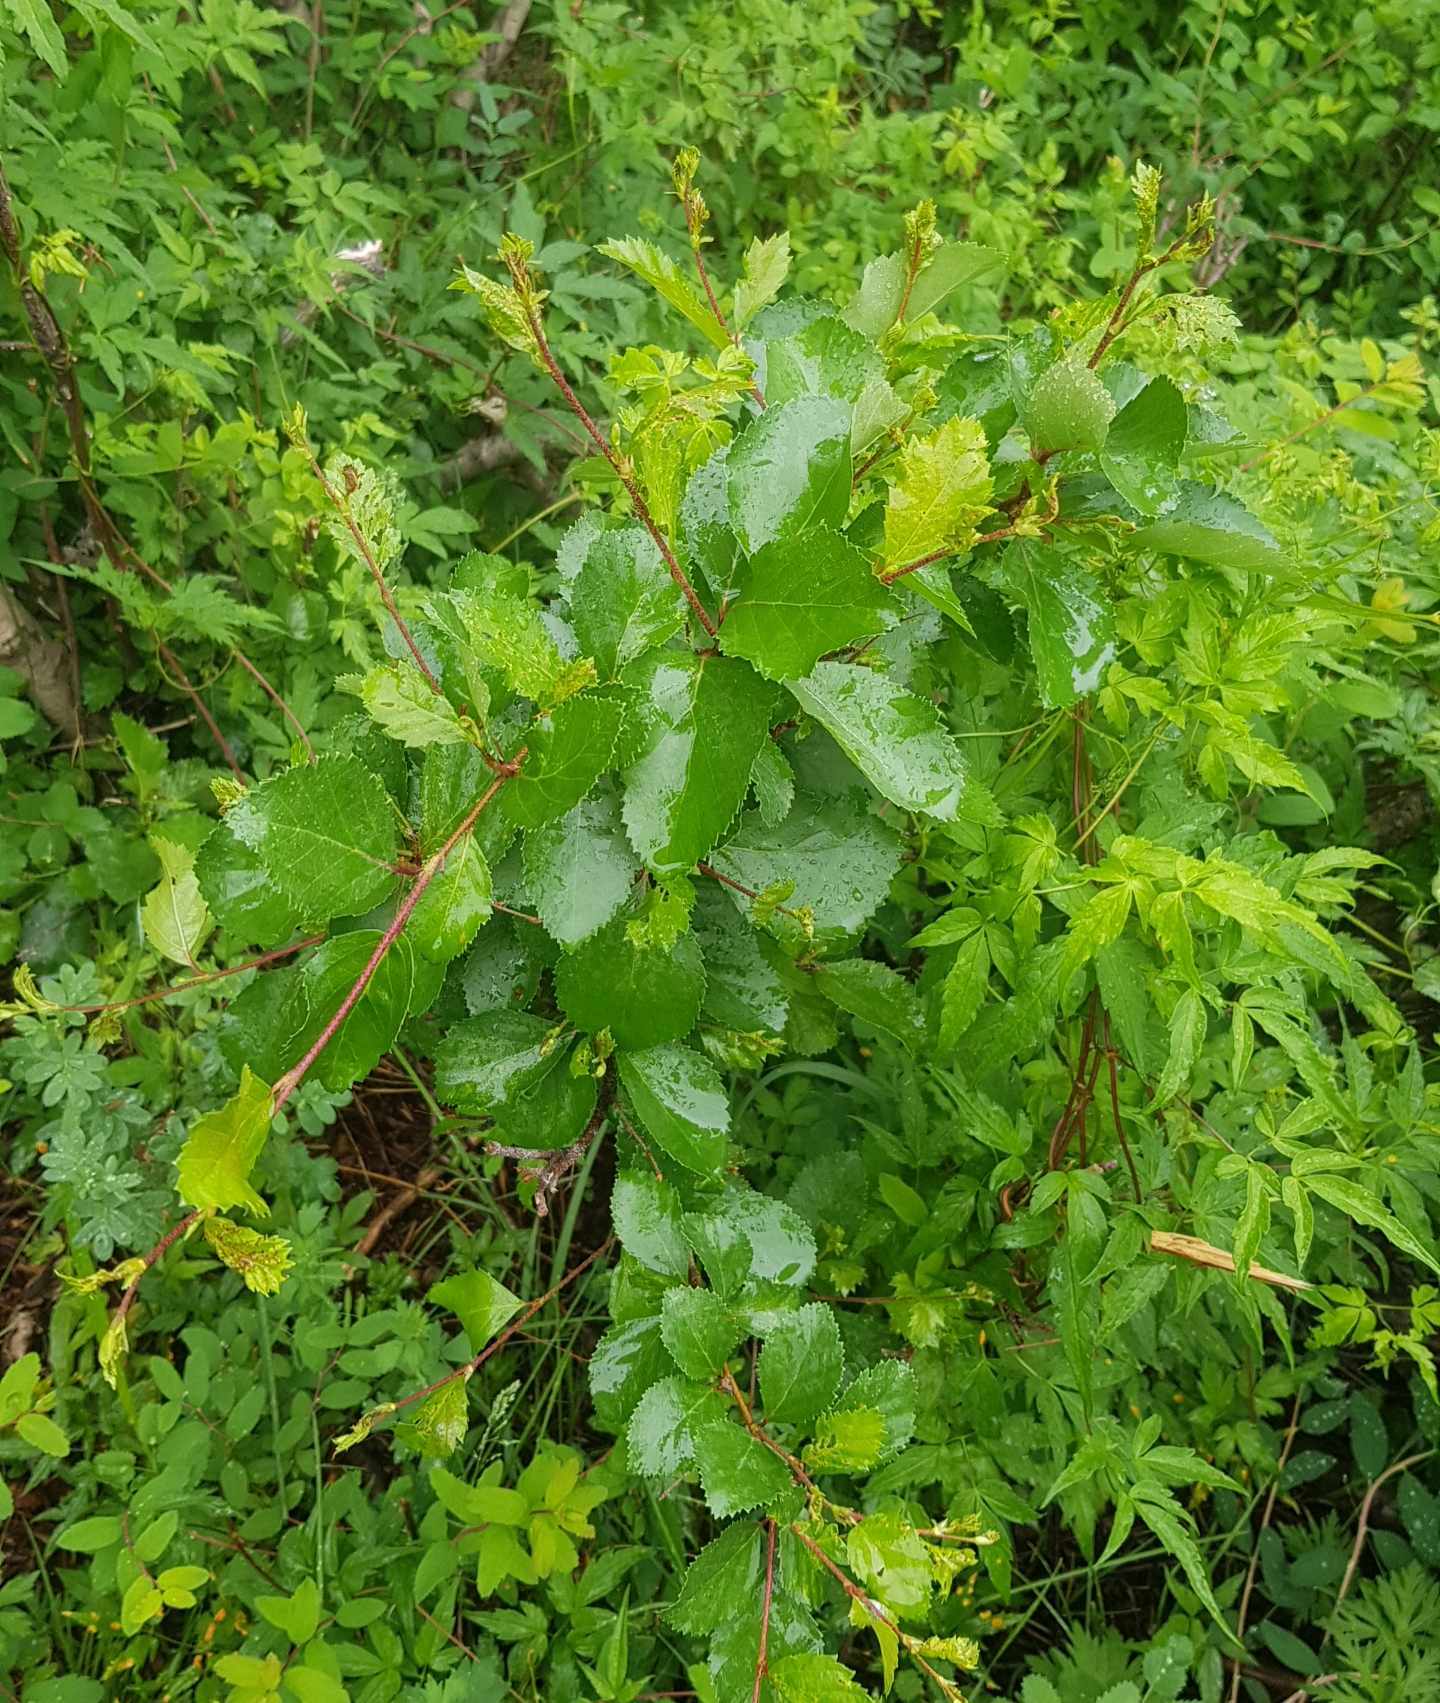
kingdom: Plantae
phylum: Tracheophyta
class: Magnoliopsida
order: Fagales
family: Betulaceae
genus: Betula
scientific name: Betula fruticosa
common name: Japanese bog birch
